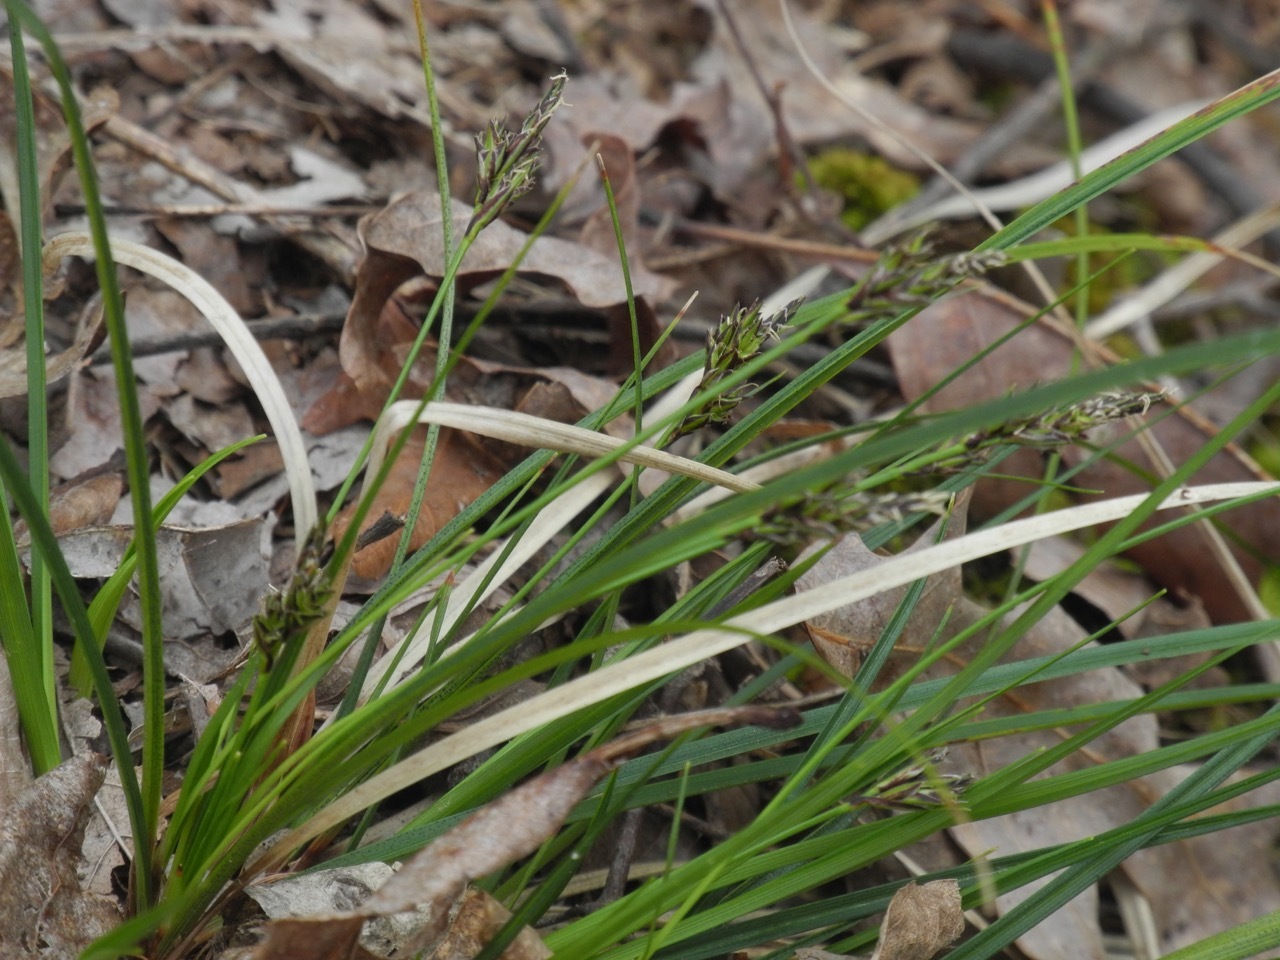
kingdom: Plantae
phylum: Tracheophyta
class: Liliopsida
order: Poales
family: Cyperaceae
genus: Carex
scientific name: Carex nigromarginata
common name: Black-edged sedge
